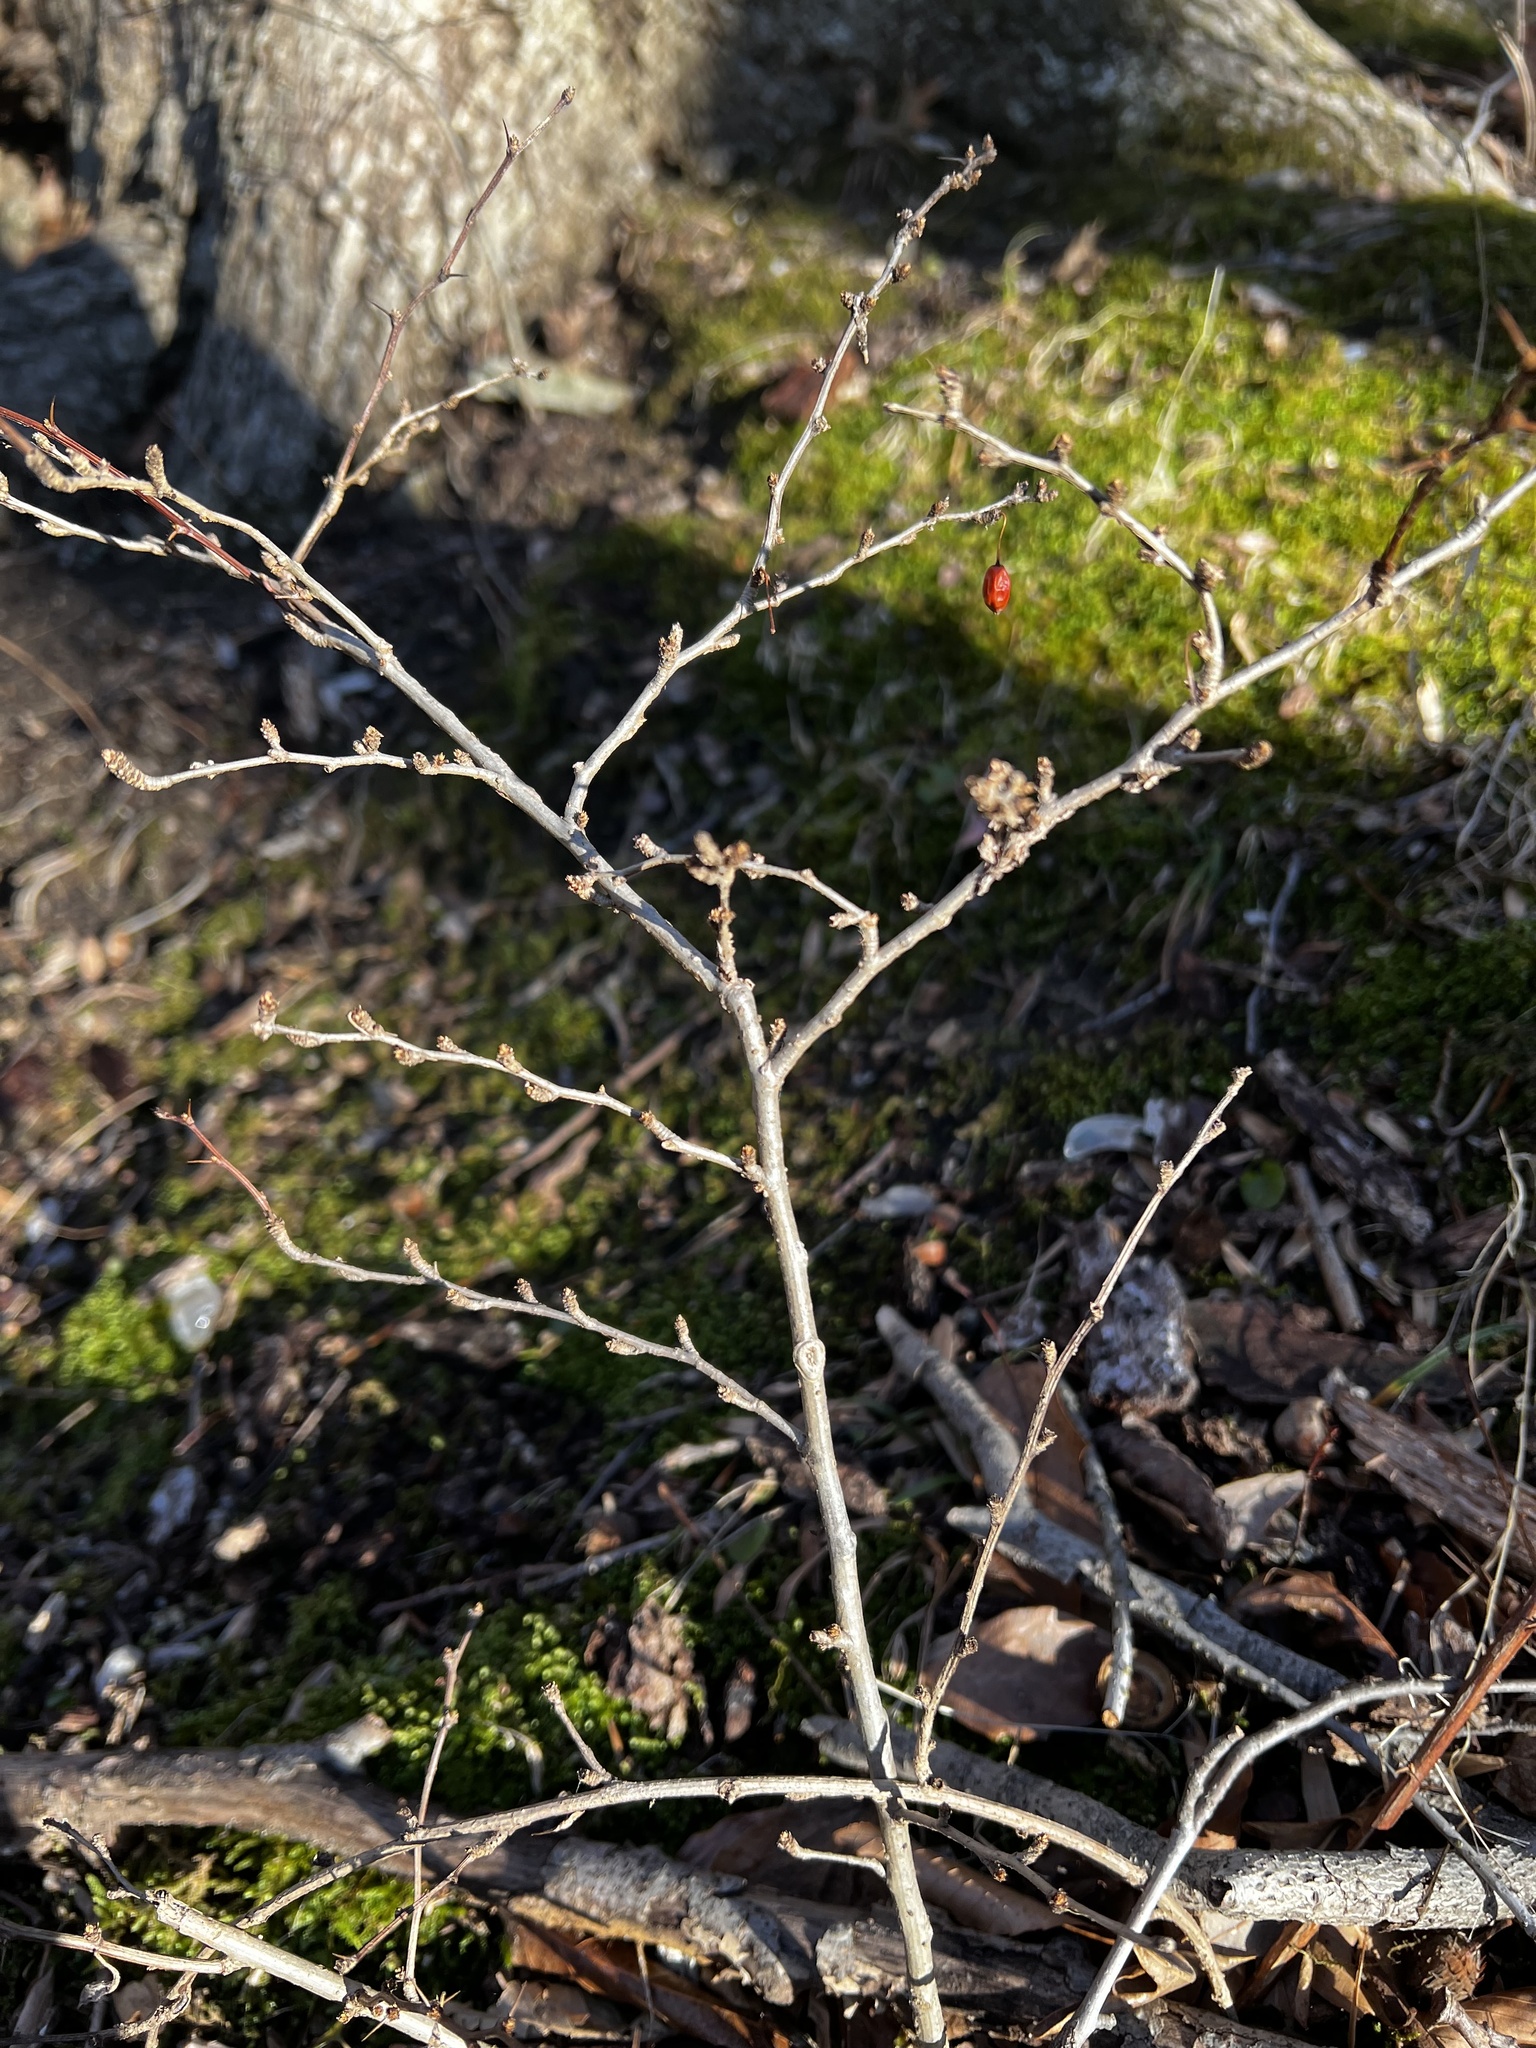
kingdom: Plantae
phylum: Tracheophyta
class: Magnoliopsida
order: Ranunculales
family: Berberidaceae
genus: Berberis
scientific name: Berberis thunbergii
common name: Japanese barberry
